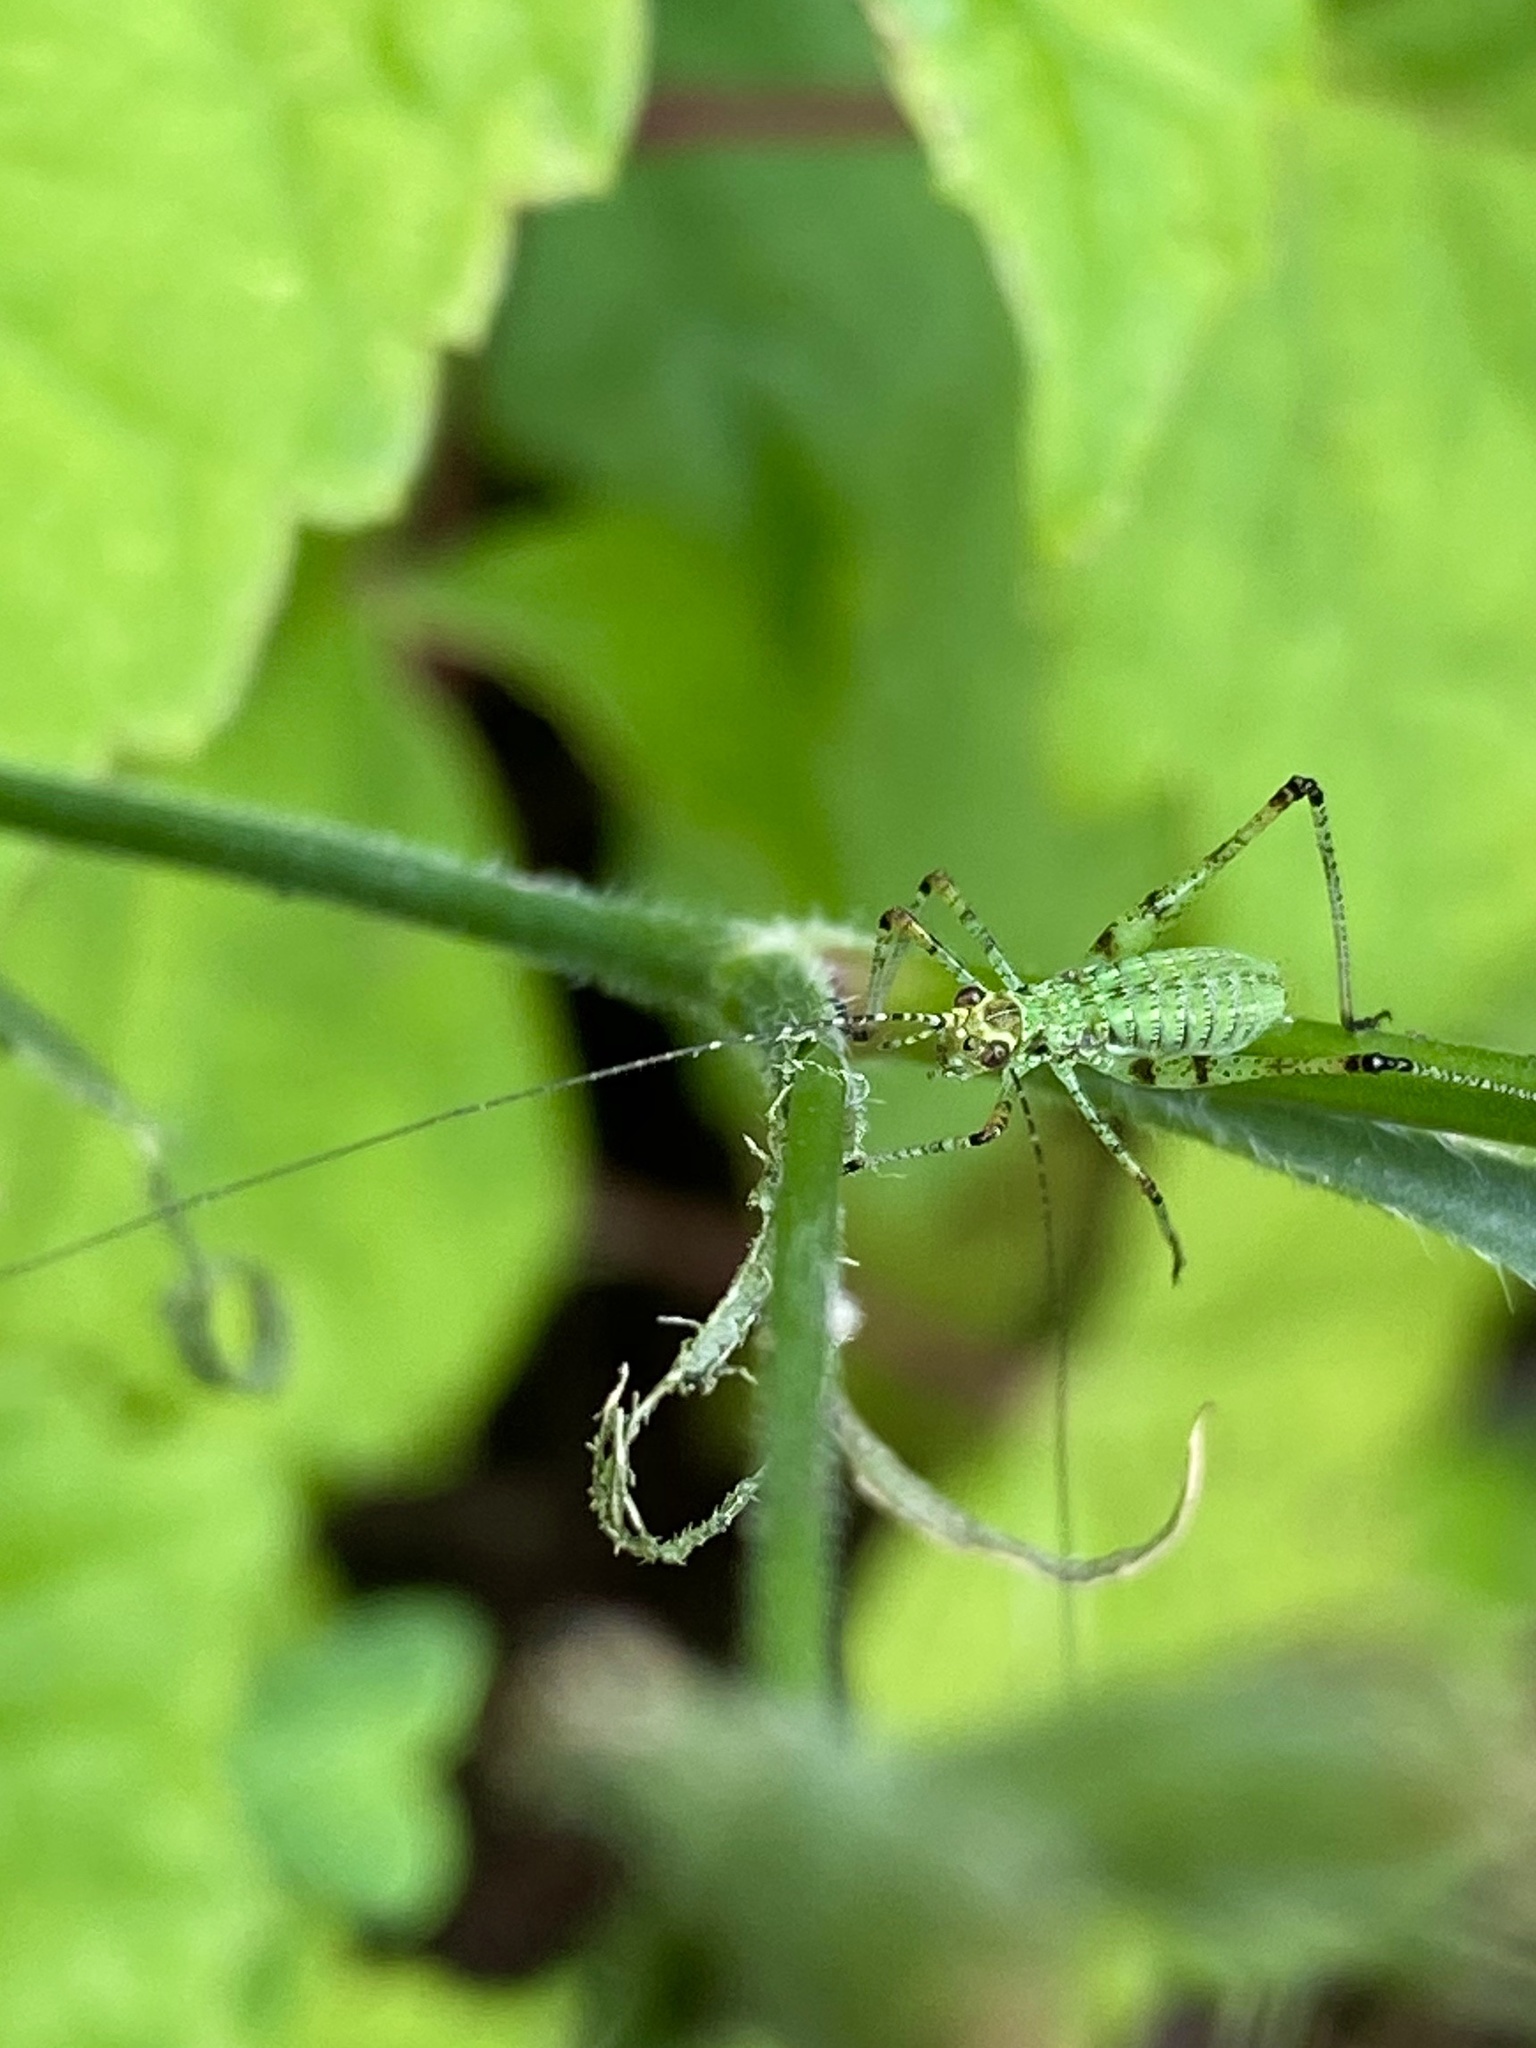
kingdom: Animalia
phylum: Arthropoda
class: Insecta
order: Orthoptera
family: Tettigoniidae
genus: Phaneroptera
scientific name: Phaneroptera nana
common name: Southern sickle bush-cricket
